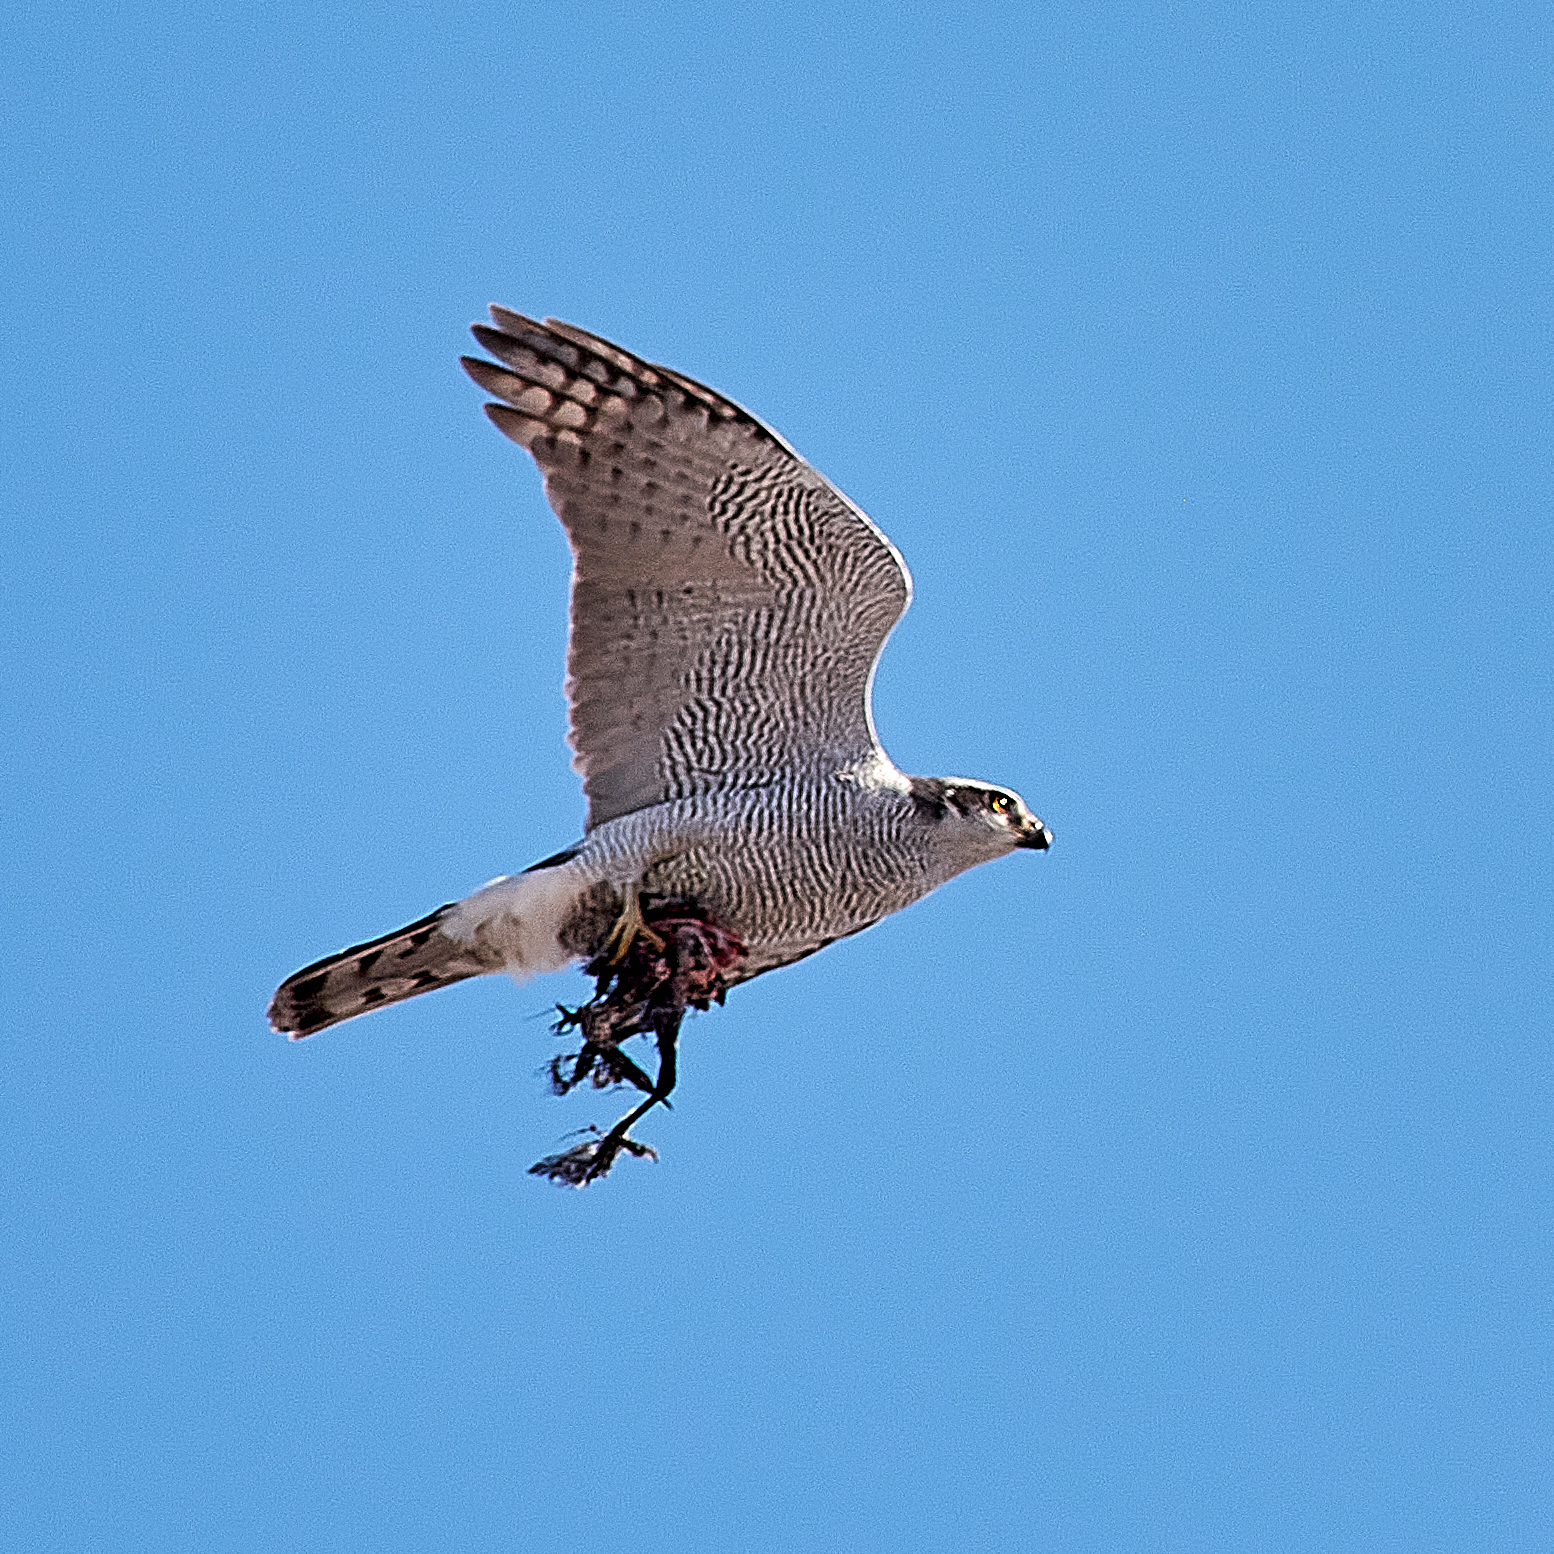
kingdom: Animalia
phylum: Chordata
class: Aves
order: Accipitriformes
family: Accipitridae
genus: Accipiter
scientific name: Accipiter gentilis
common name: Northern goshawk
